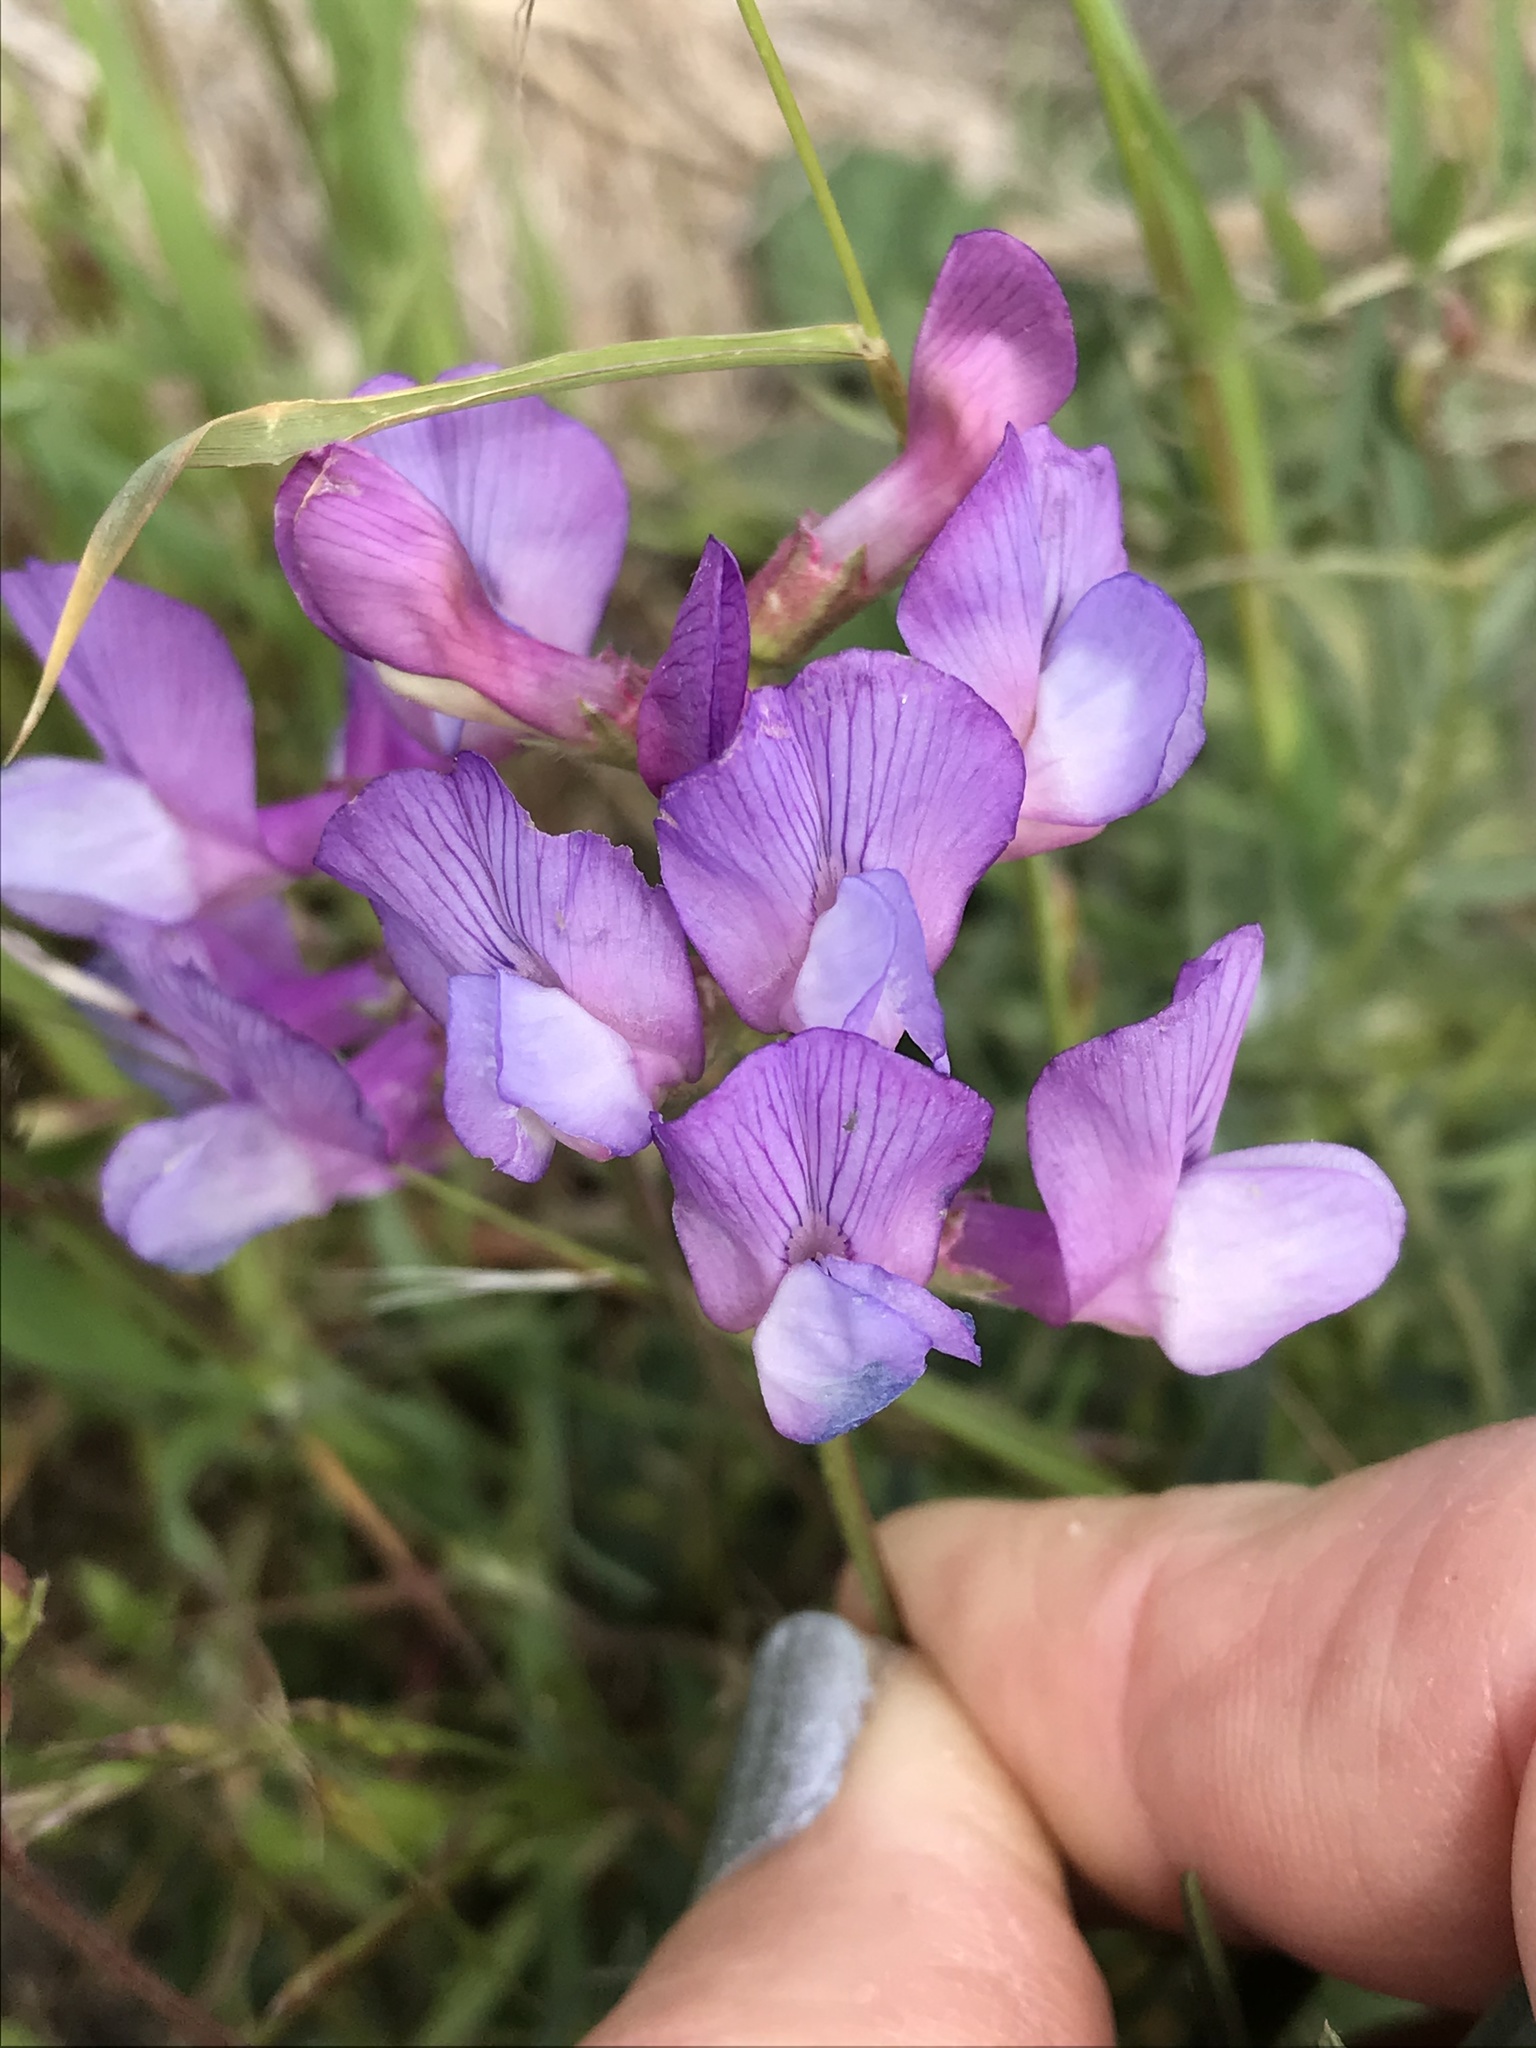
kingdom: Plantae
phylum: Tracheophyta
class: Magnoliopsida
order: Fabales
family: Fabaceae
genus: Vicia
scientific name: Vicia americana
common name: American vetch
